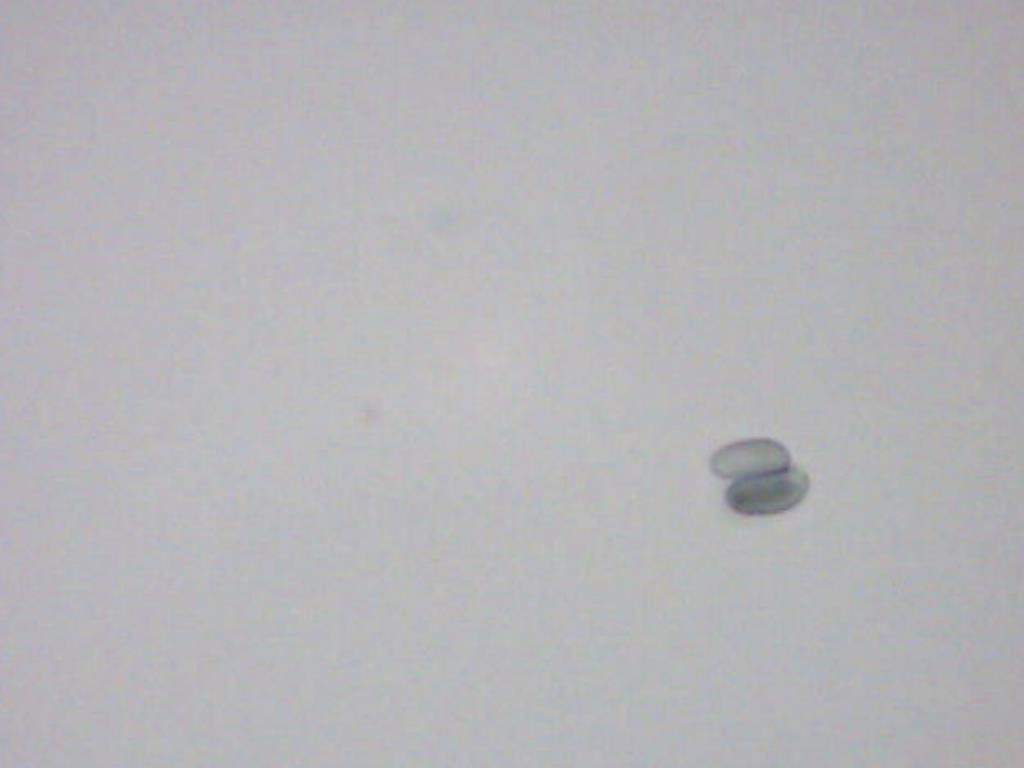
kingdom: Fungi
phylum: Basidiomycota
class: Agaricomycetes
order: Russulales
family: Stereaceae
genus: Xylobolus
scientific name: Xylobolus subpileatus
